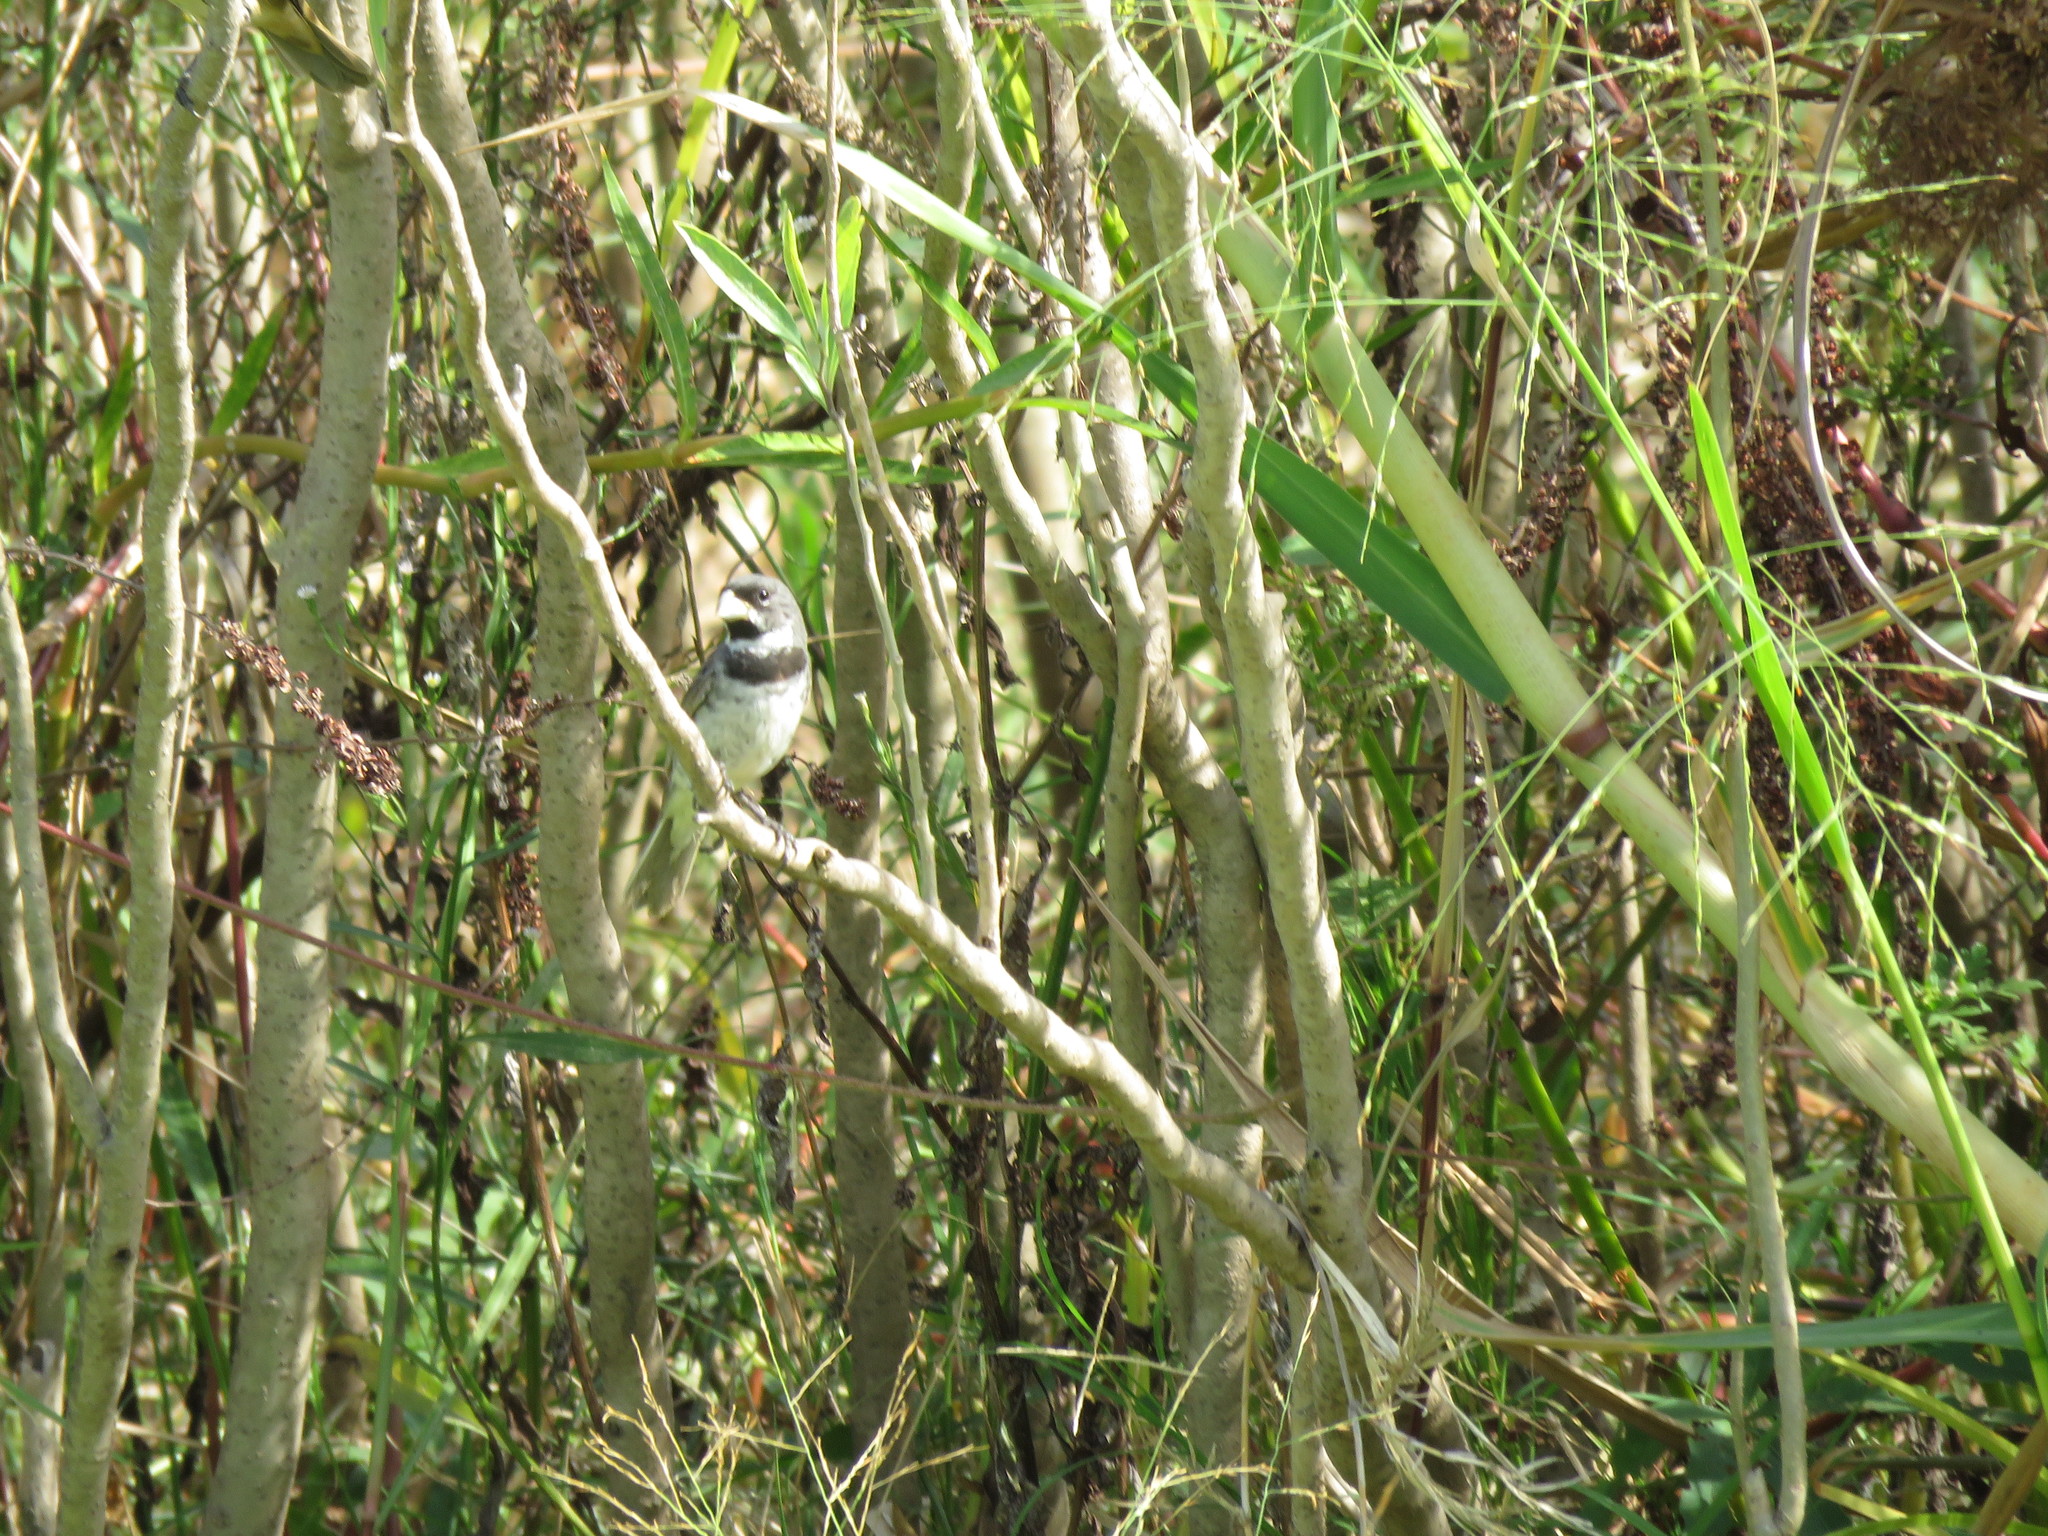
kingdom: Animalia
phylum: Chordata
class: Aves
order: Passeriformes
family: Thraupidae
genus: Sporophila
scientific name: Sporophila caerulescens
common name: Double-collared seedeater
